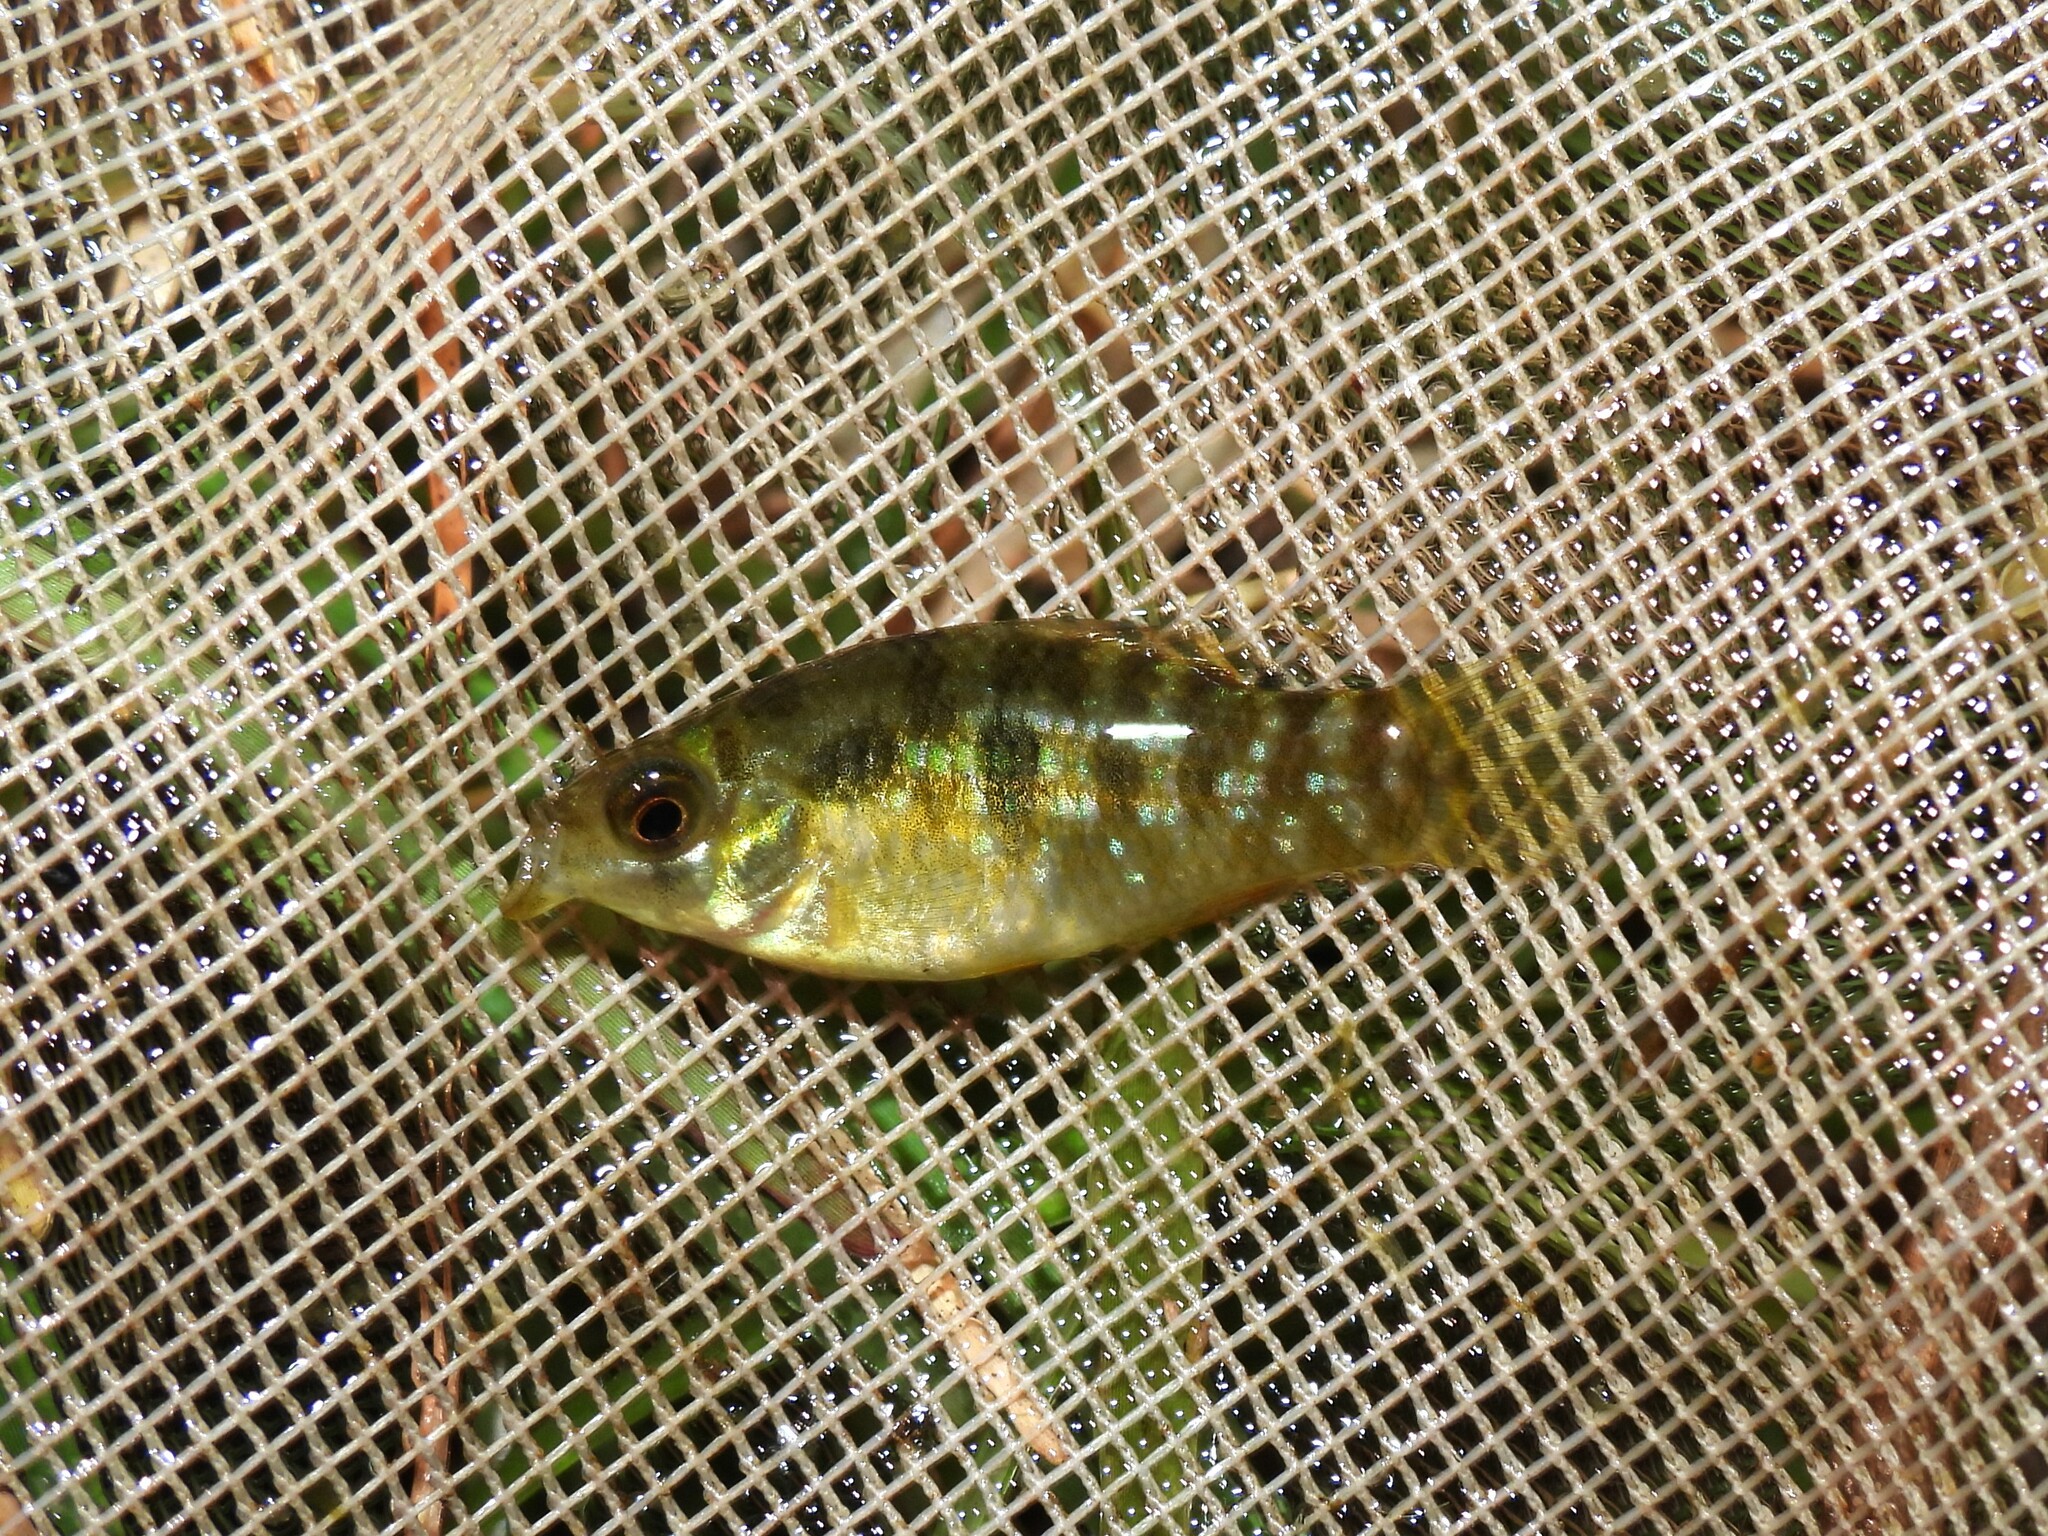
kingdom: Animalia
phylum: Chordata
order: Cyprinodontiformes
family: Cyprinodontidae
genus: Jordanella
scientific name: Jordanella floridae
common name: Flagfish
